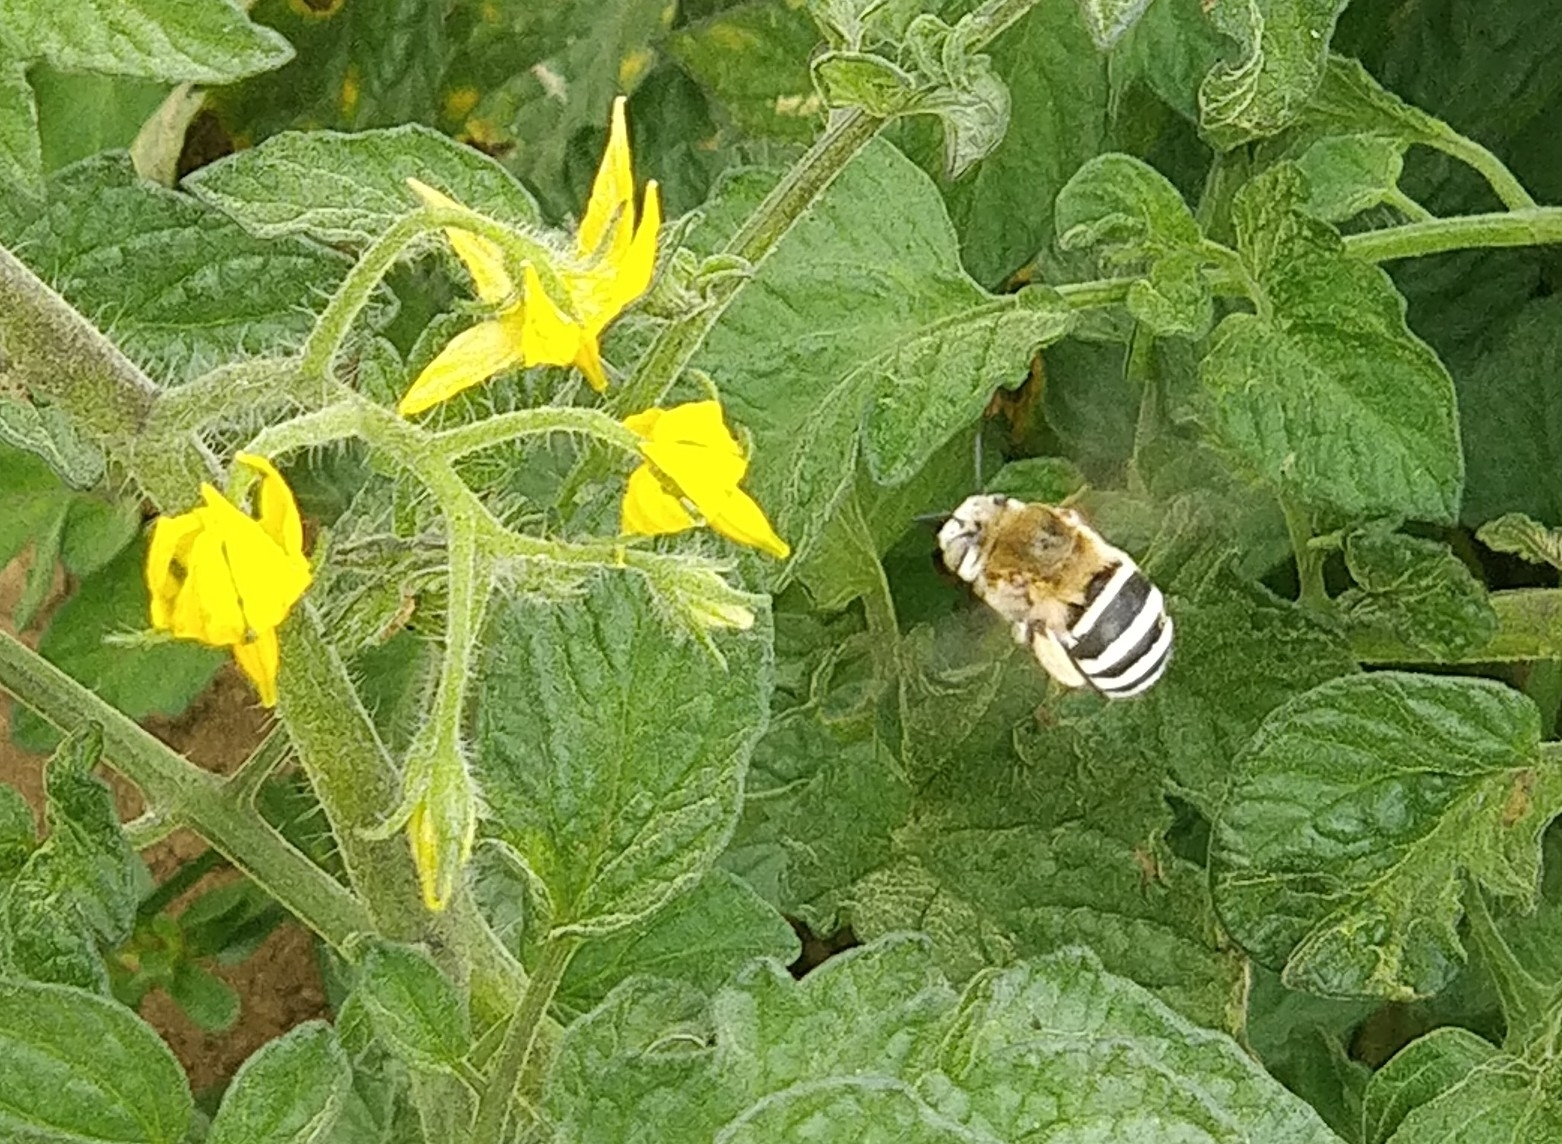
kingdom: Animalia
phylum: Arthropoda
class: Insecta
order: Hymenoptera
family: Apidae
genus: Amegilla
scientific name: Amegilla quadrifasciata
